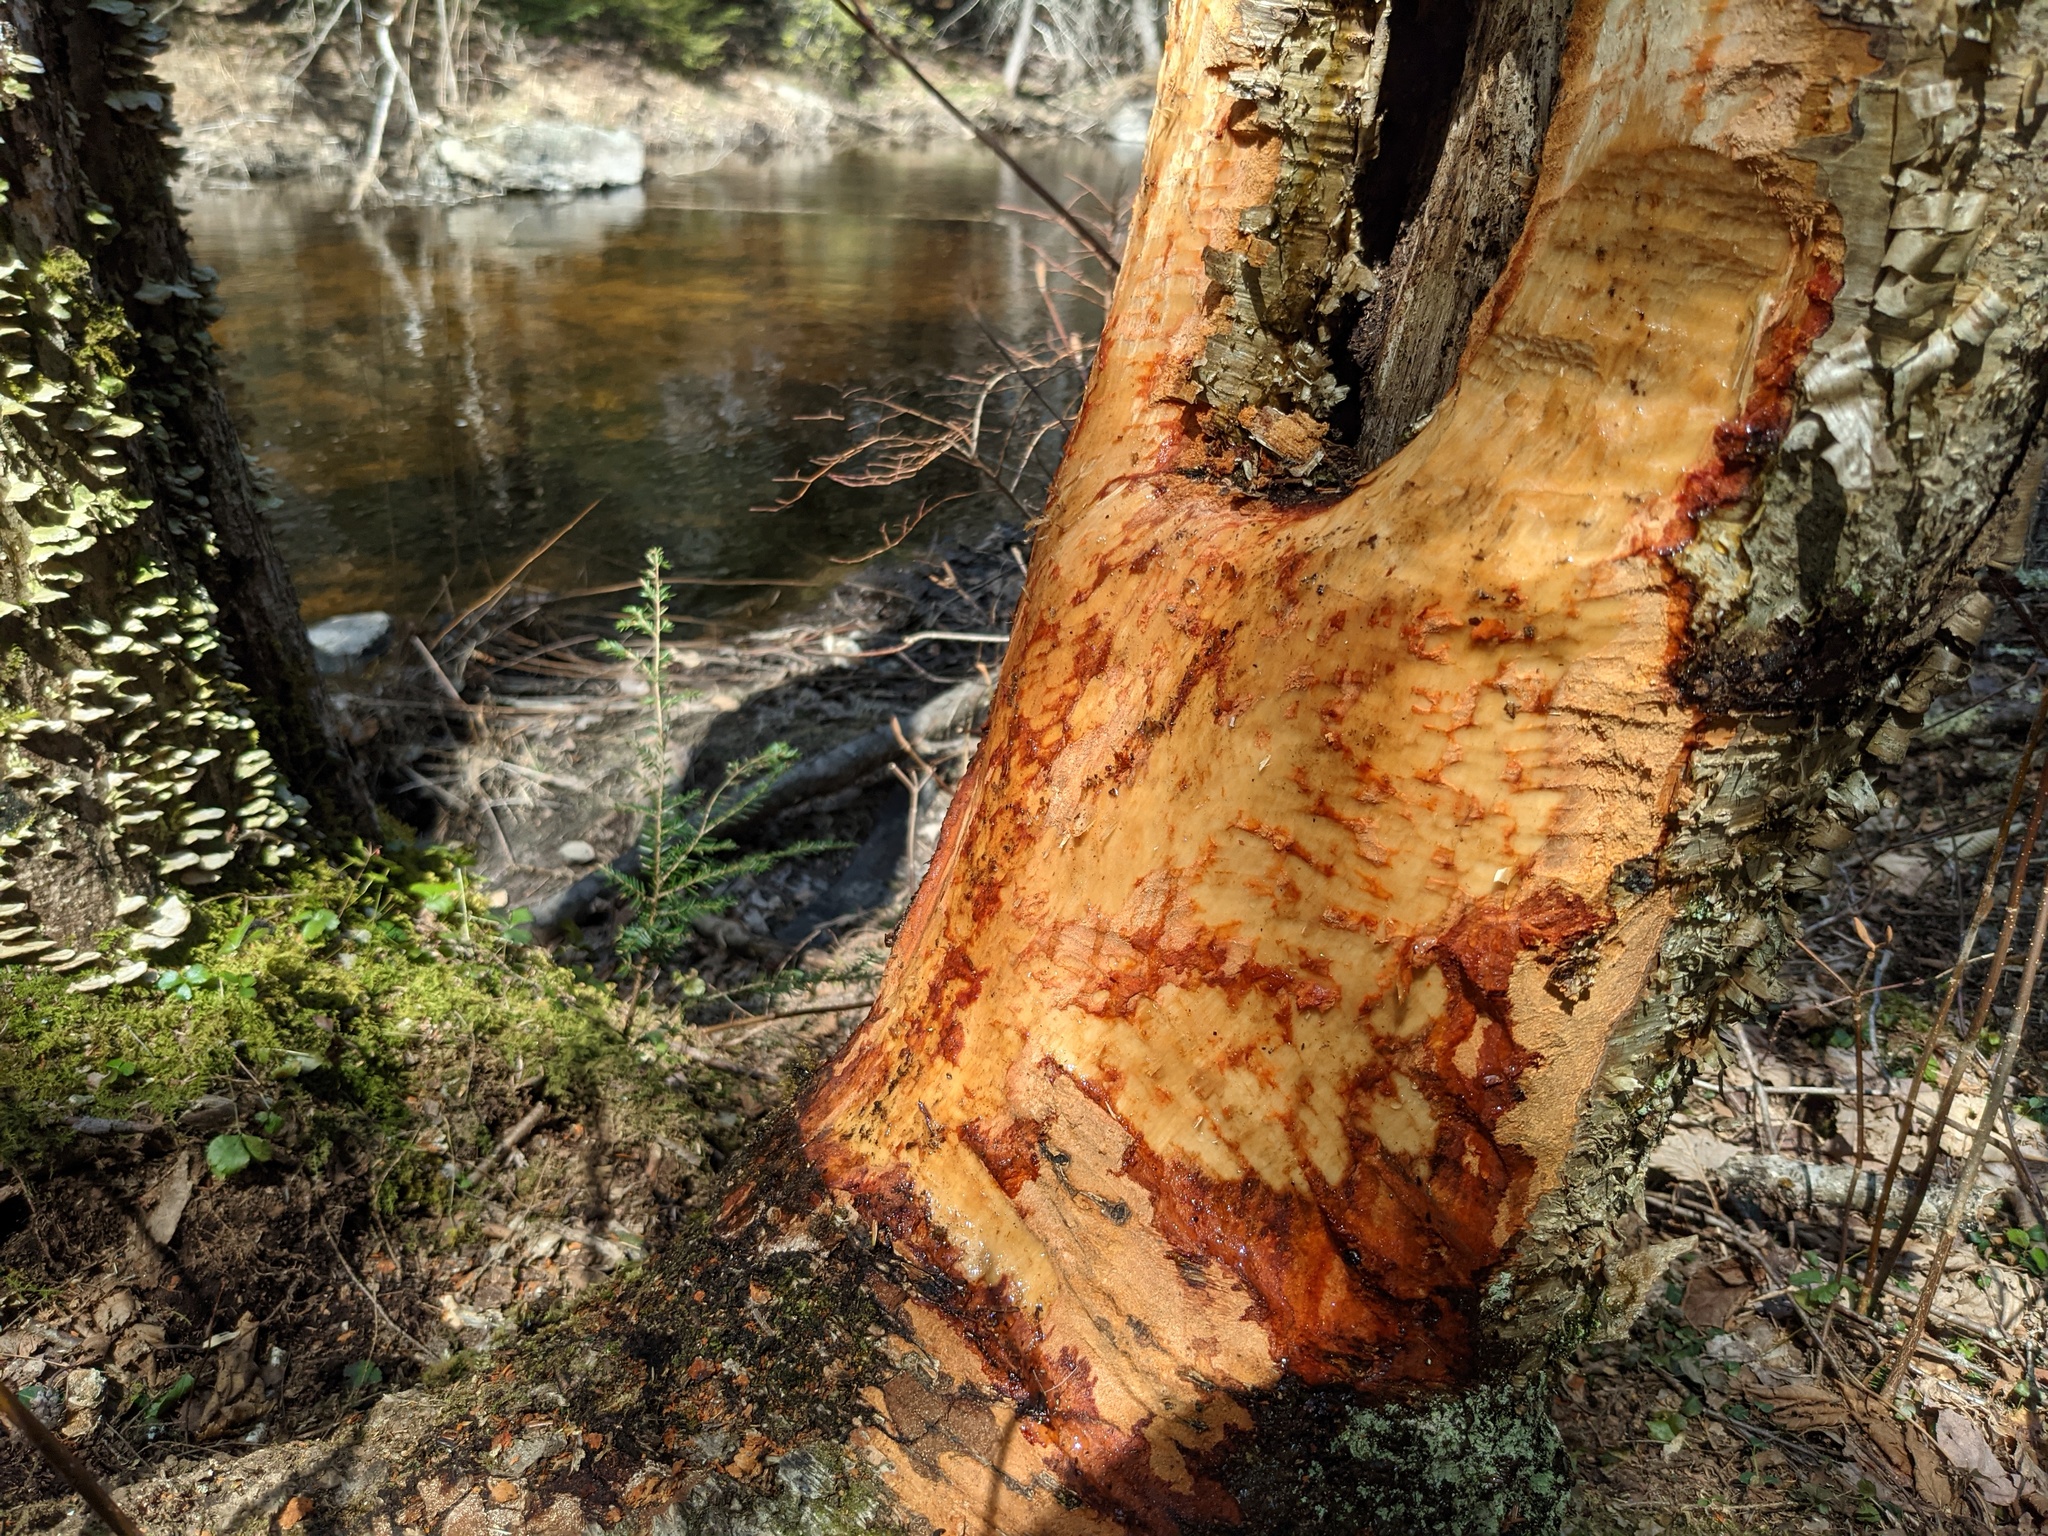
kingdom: Animalia
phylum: Chordata
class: Mammalia
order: Rodentia
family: Castoridae
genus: Castor
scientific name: Castor canadensis
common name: American beaver
